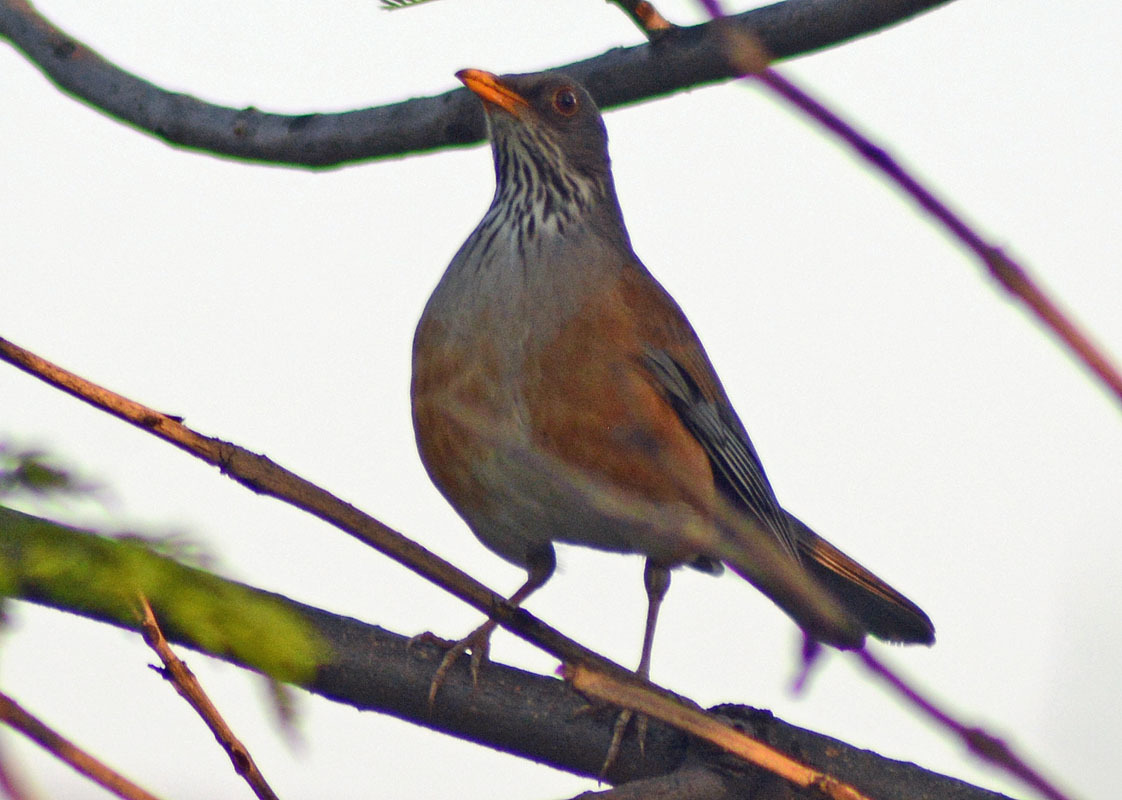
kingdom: Animalia
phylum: Chordata
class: Aves
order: Passeriformes
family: Turdidae
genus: Turdus
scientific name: Turdus rufopalliatus
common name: Rufous-backed robin
